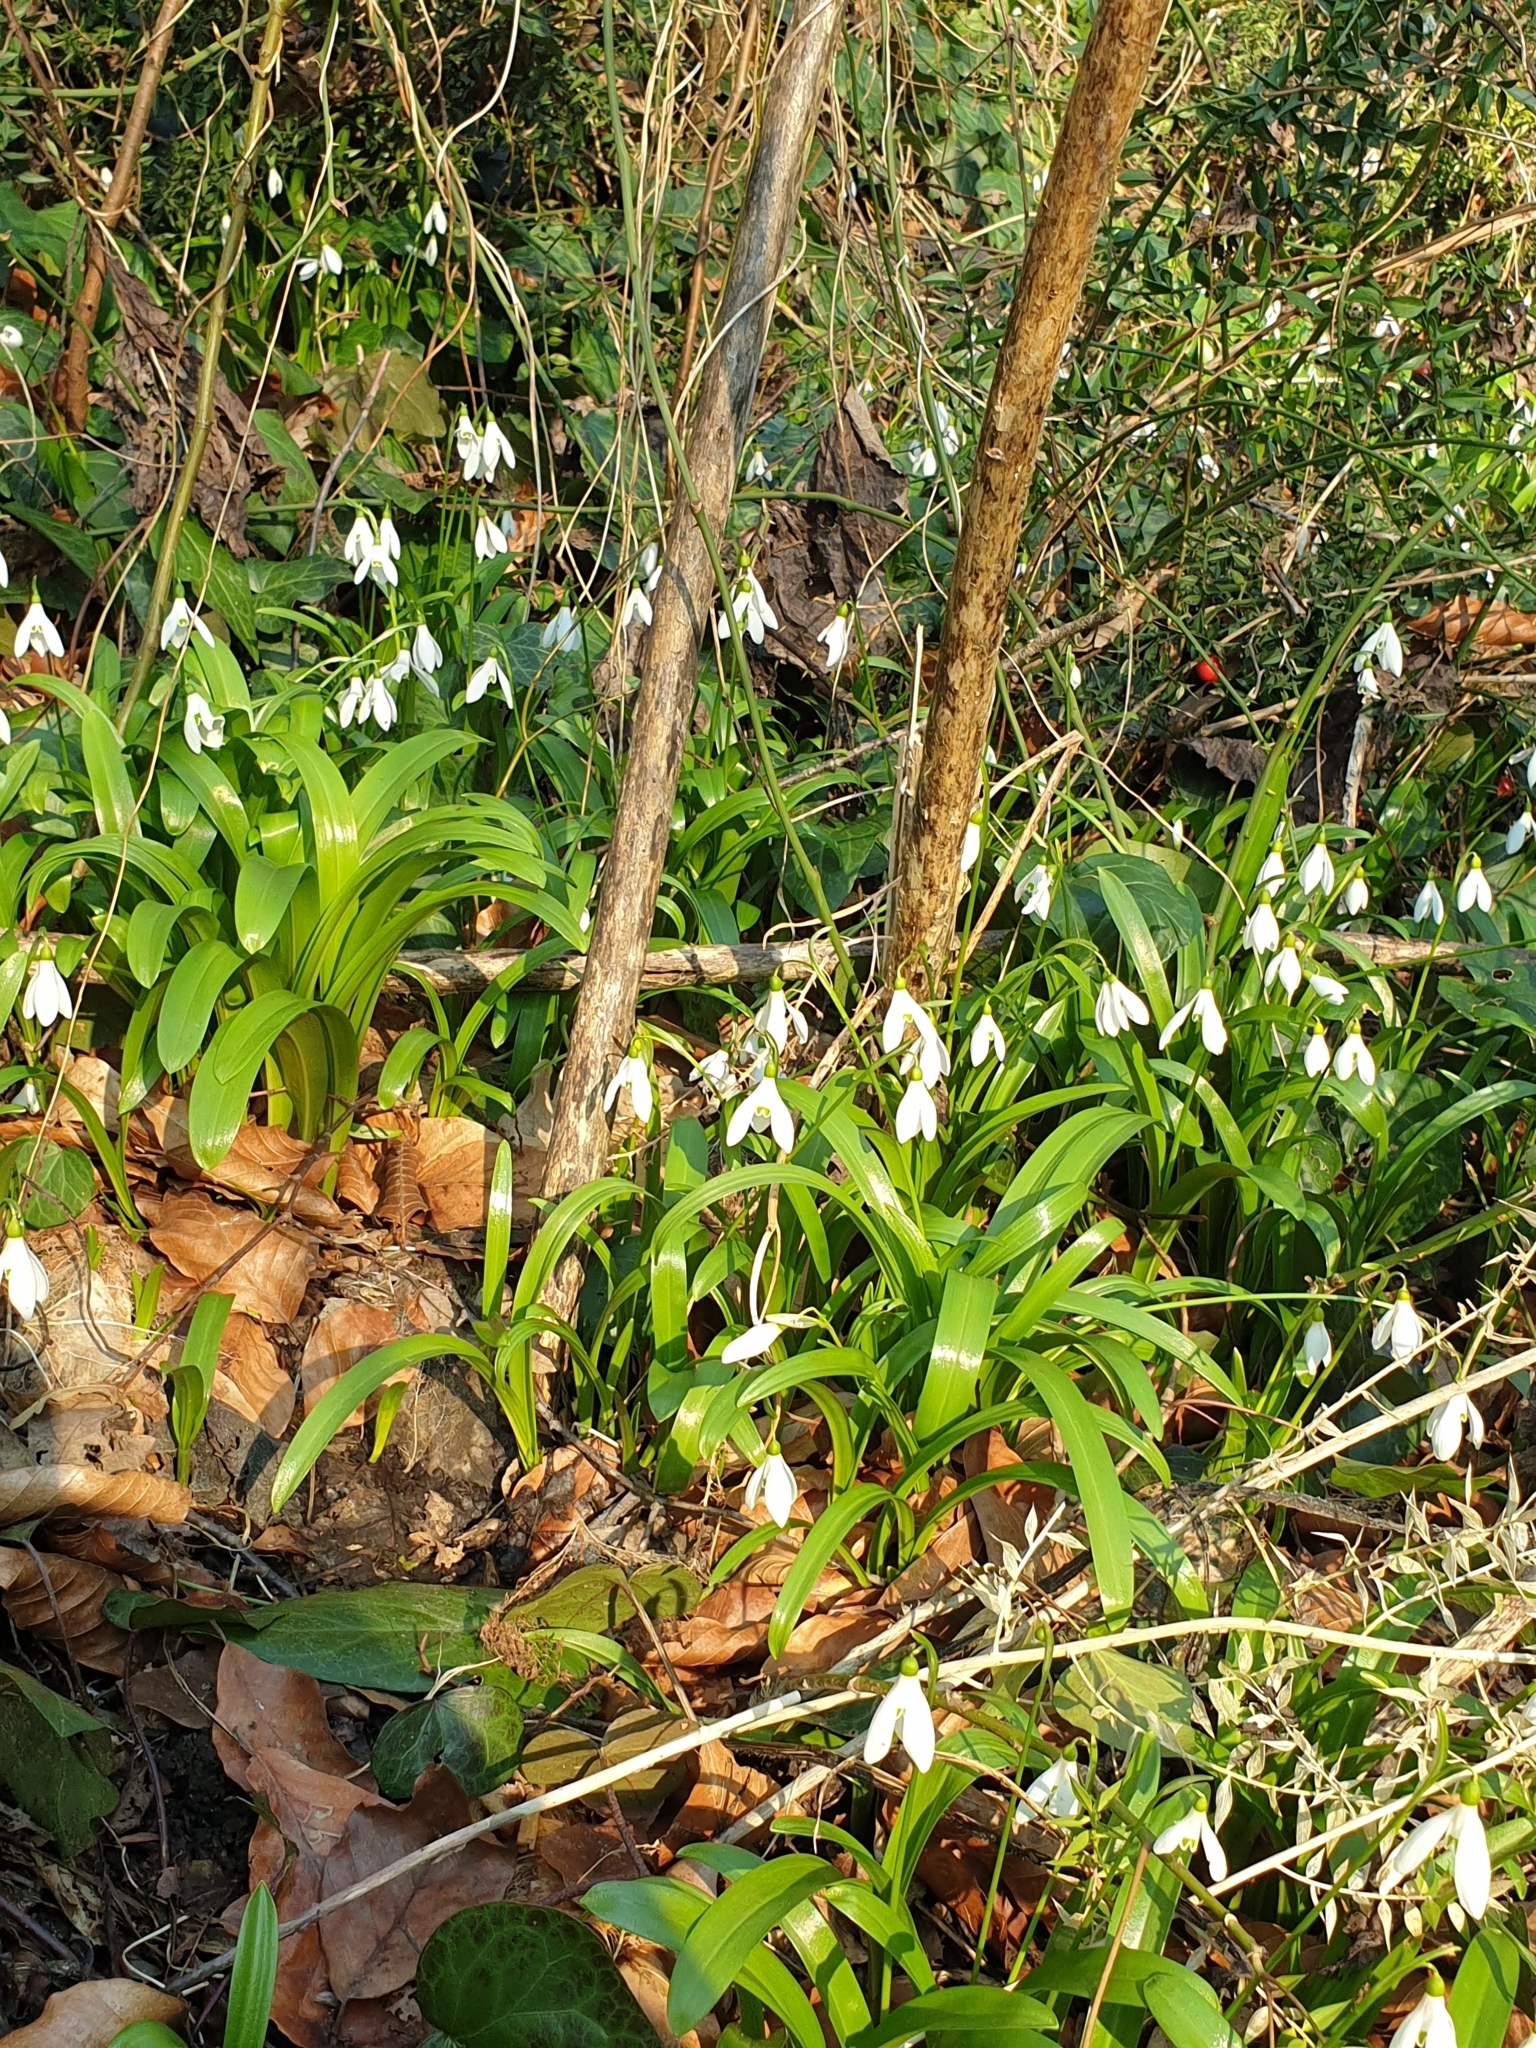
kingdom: Plantae
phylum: Tracheophyta
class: Liliopsida
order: Asparagales
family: Amaryllidaceae
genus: Galanthus
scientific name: Galanthus woronowii
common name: Green snowdrop
